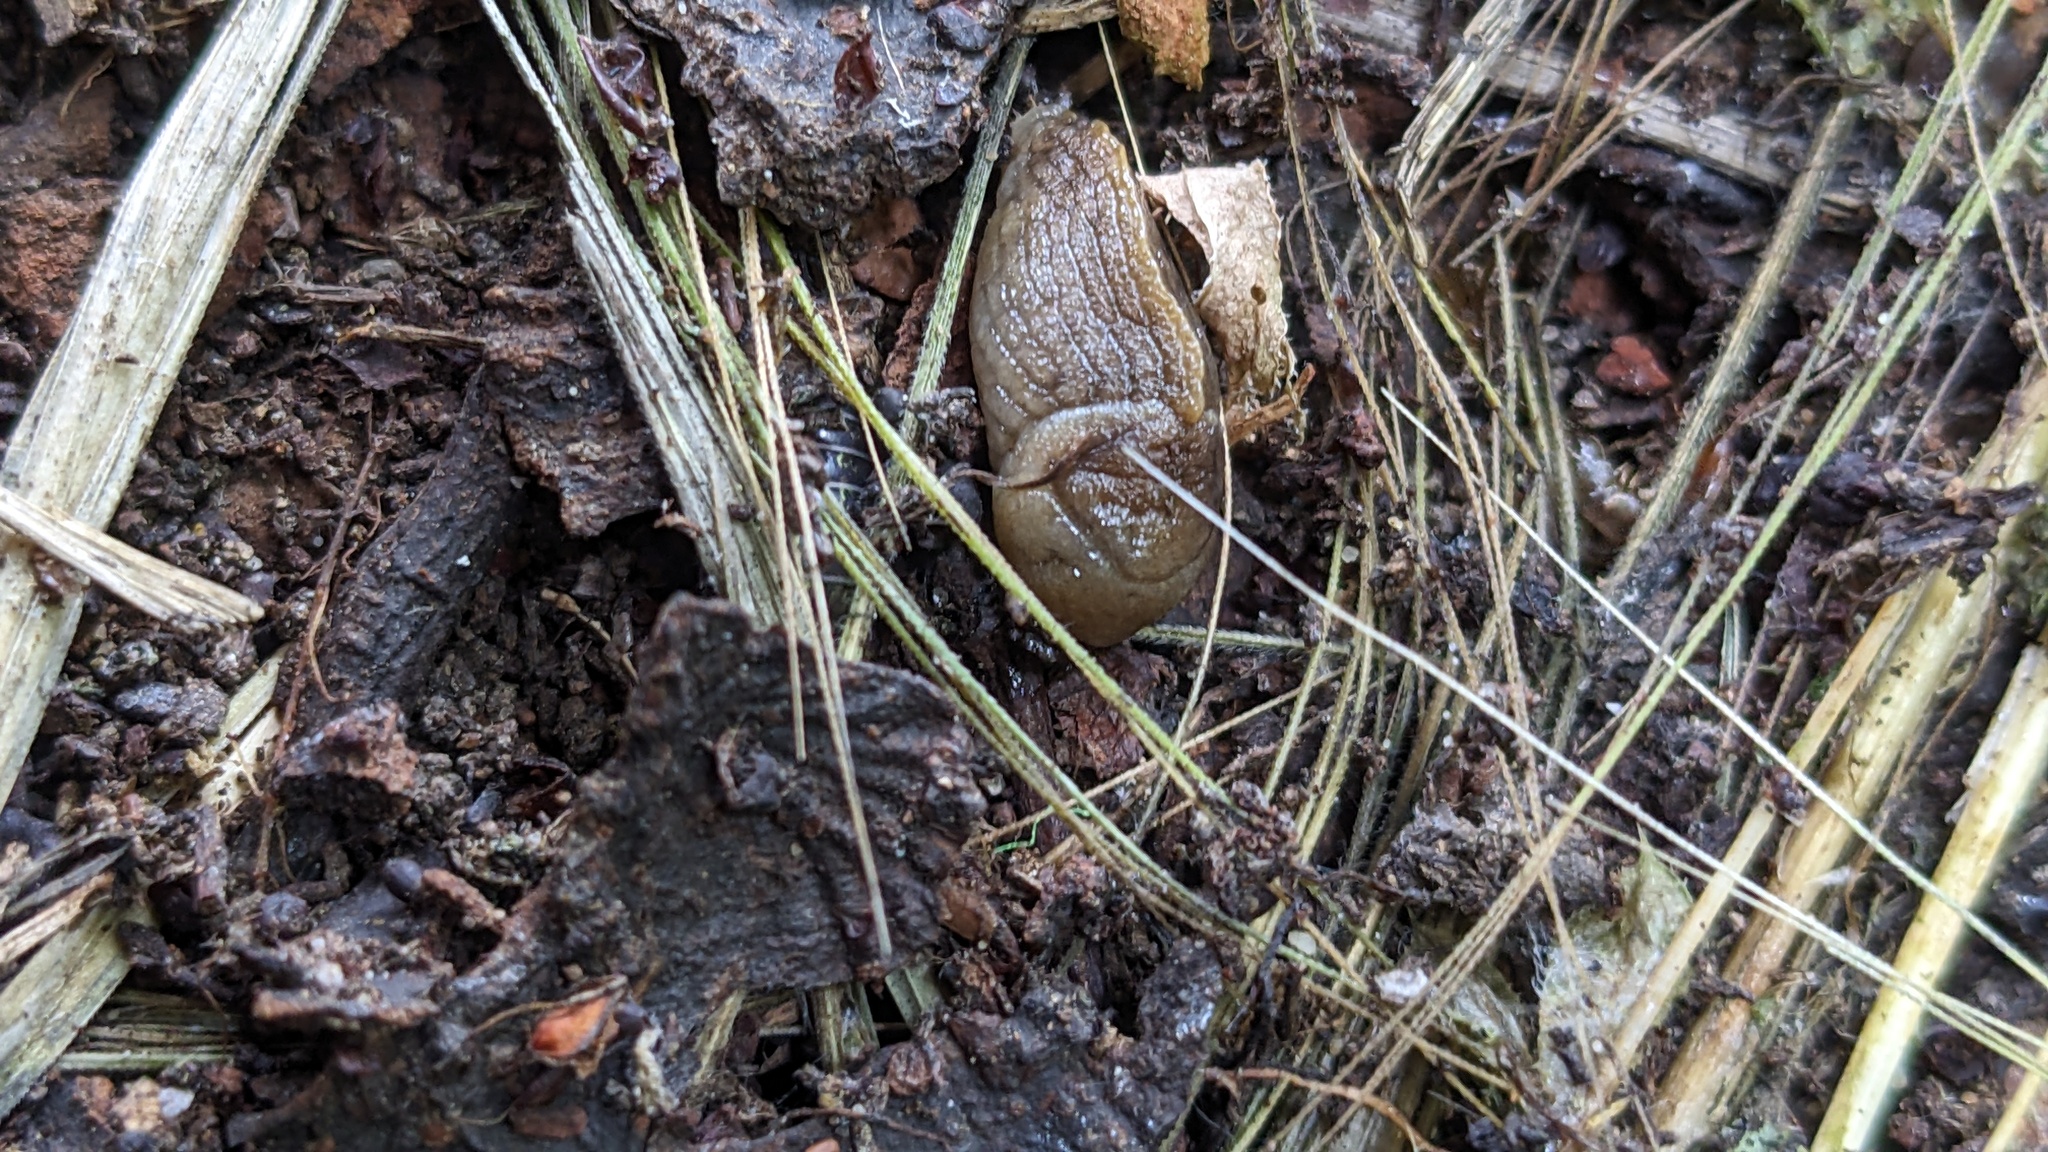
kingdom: Animalia
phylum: Mollusca
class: Gastropoda
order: Stylommatophora
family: Milacidae
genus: Milax
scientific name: Milax gagates
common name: Greenhouse slug
